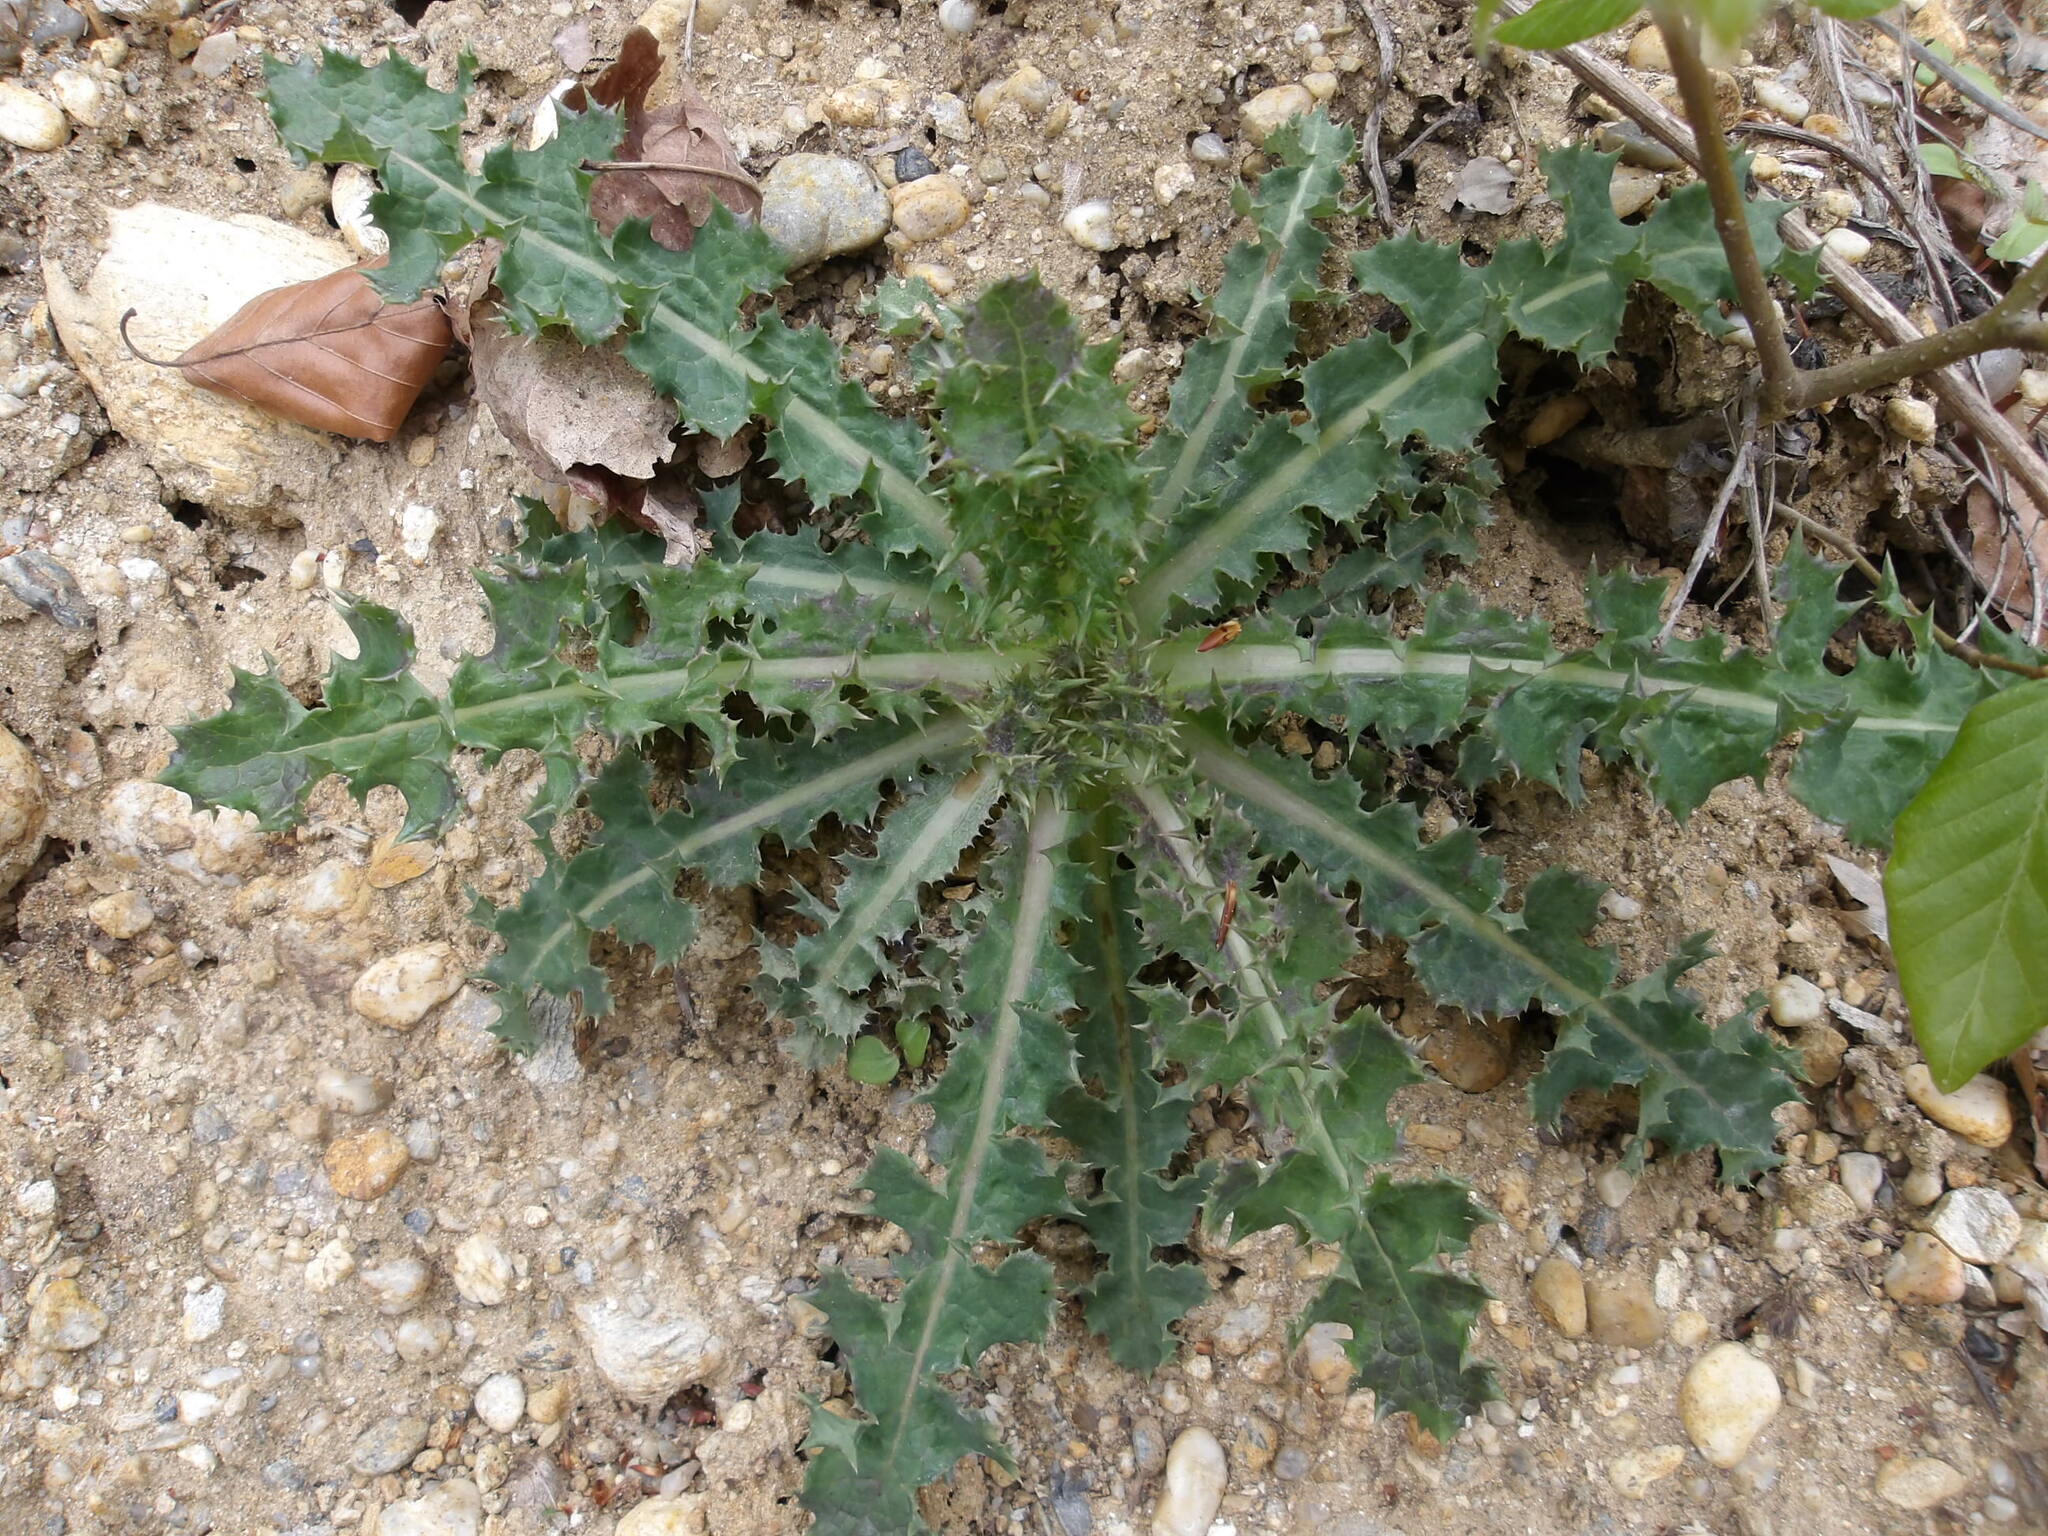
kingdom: Plantae
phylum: Tracheophyta
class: Magnoliopsida
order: Asterales
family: Asteraceae
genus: Sonchus
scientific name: Sonchus asper
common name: Prickly sow-thistle
